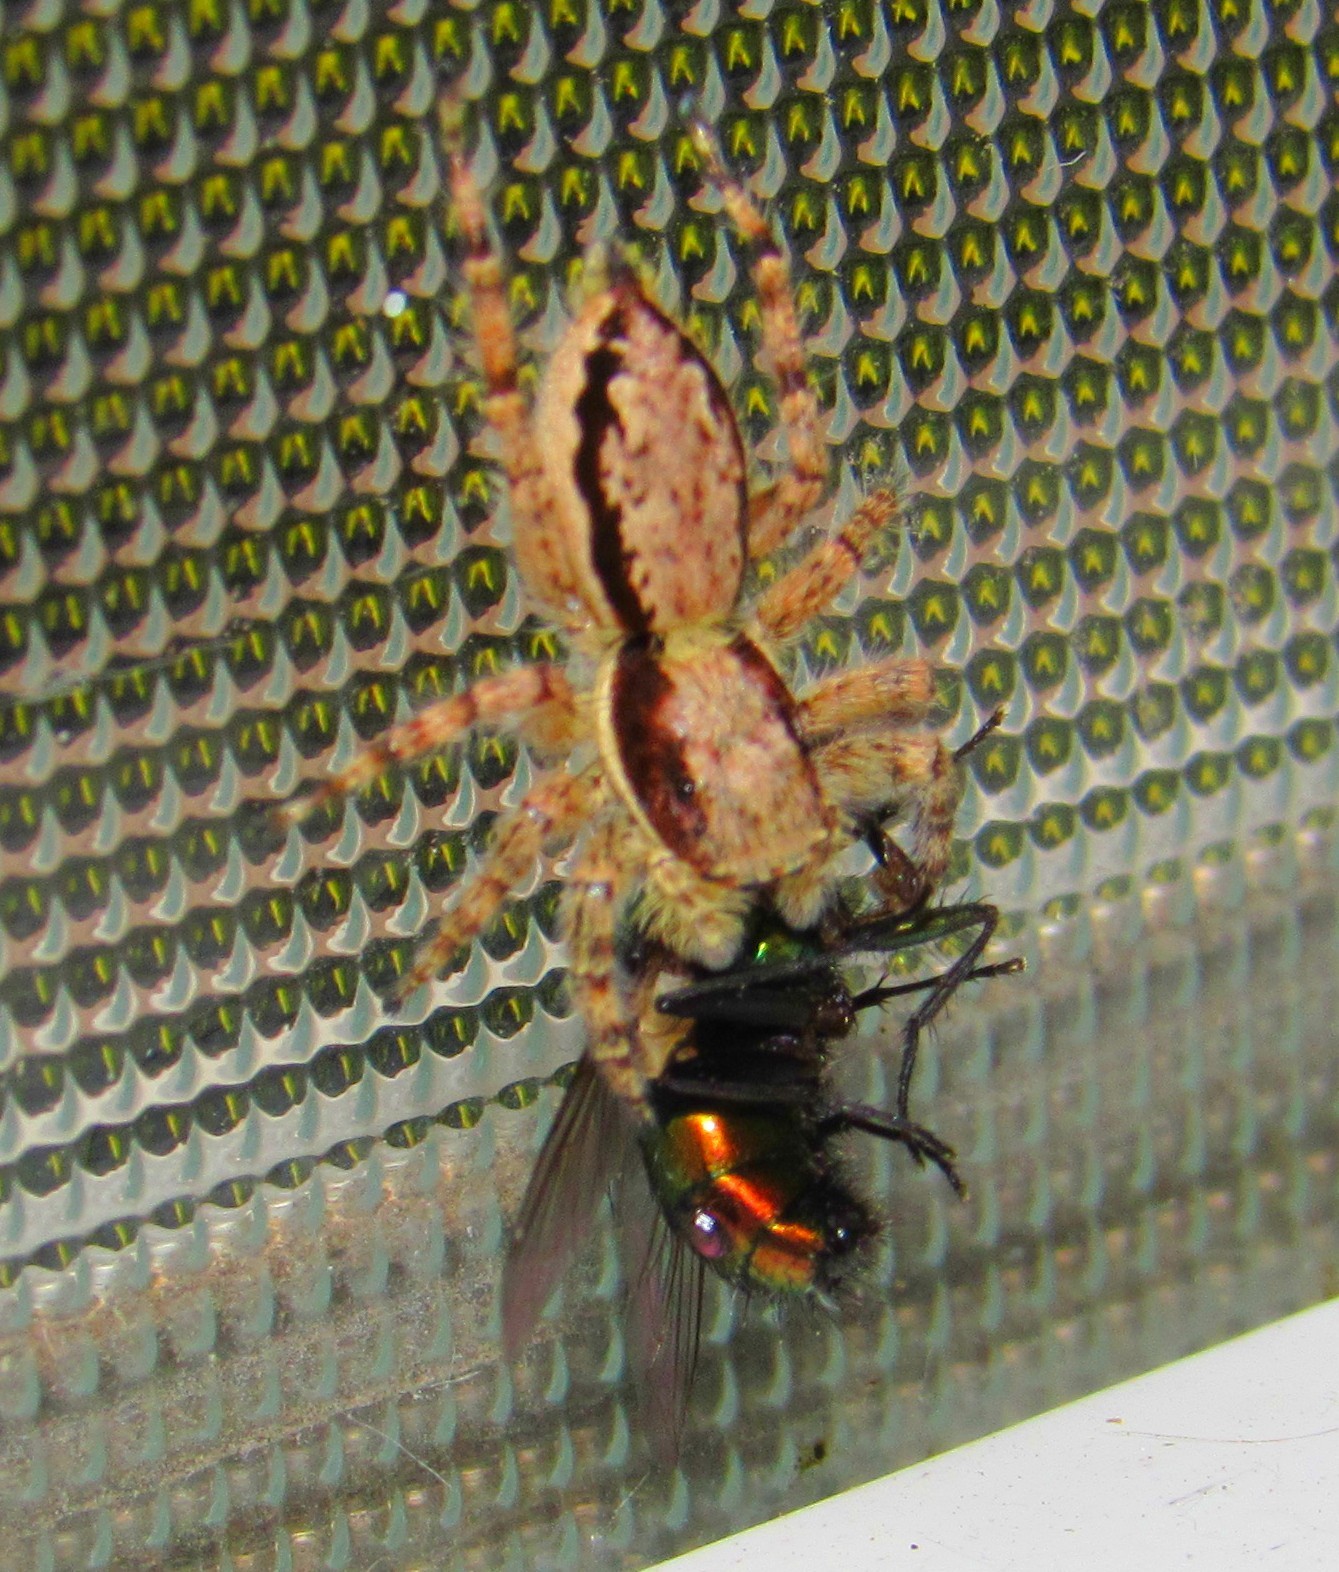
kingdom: Animalia
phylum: Arthropoda
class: Arachnida
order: Araneae
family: Salticidae
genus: Menemerus
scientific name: Menemerus bivittatus
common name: Gray wall jumper
